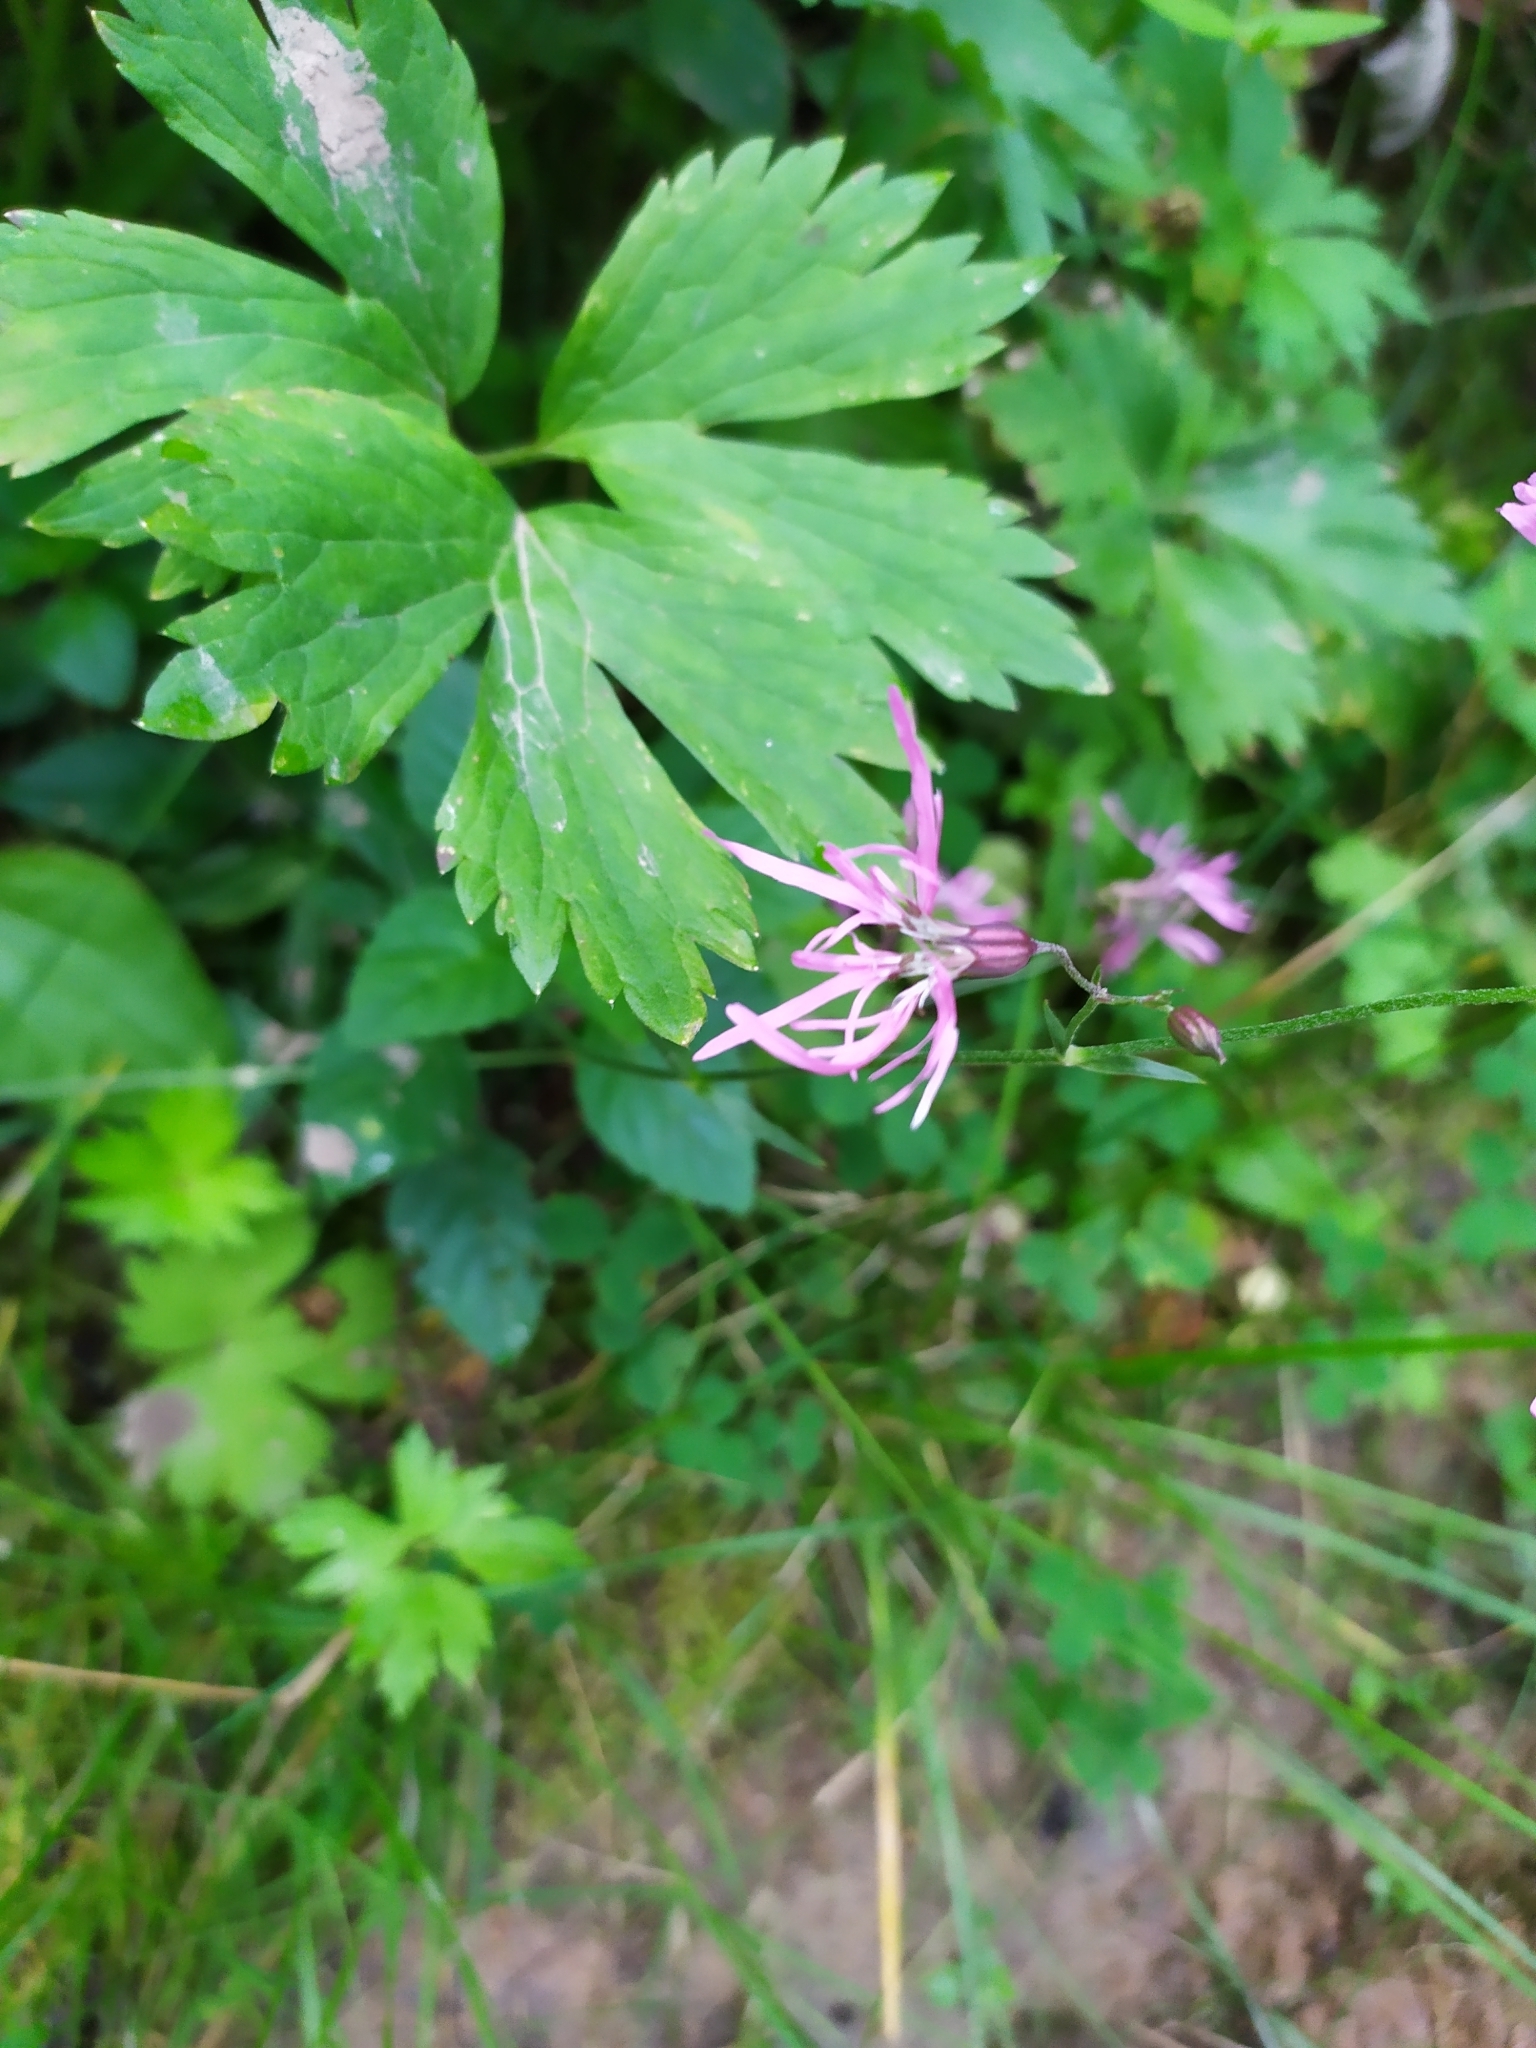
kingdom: Plantae
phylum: Tracheophyta
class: Magnoliopsida
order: Caryophyllales
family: Caryophyllaceae
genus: Silene
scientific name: Silene flos-cuculi
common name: Ragged-robin
